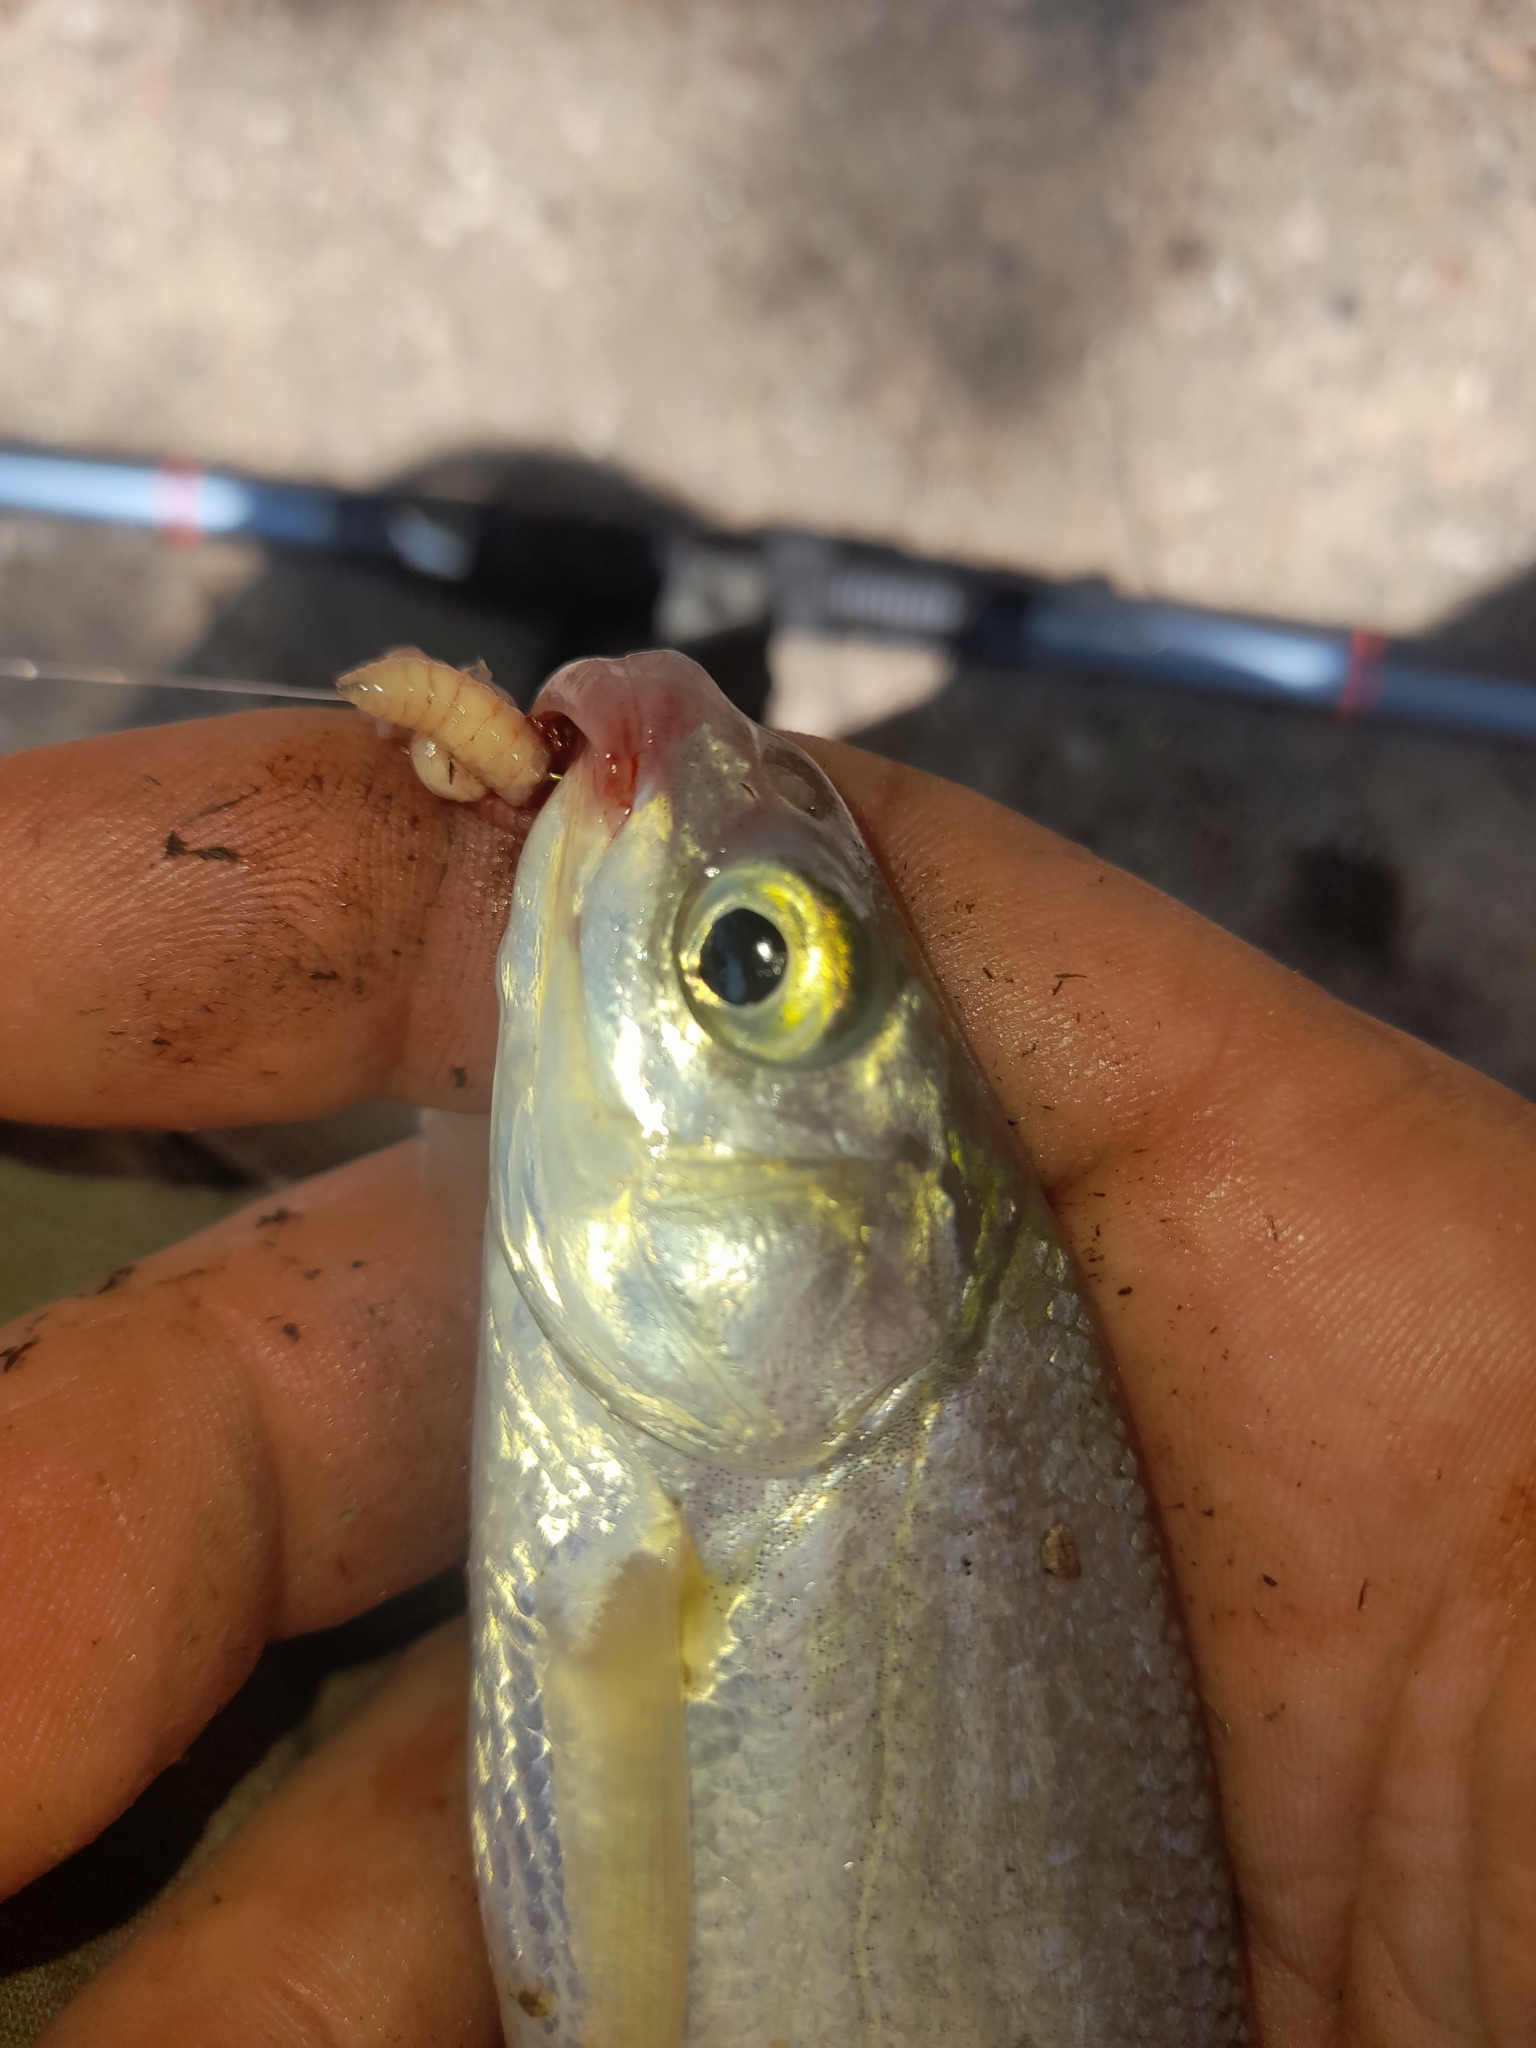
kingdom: Animalia
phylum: Chordata
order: Cypriniformes
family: Cyprinidae
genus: Protochondrostoma
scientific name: Protochondrostoma genei
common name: South european nase
